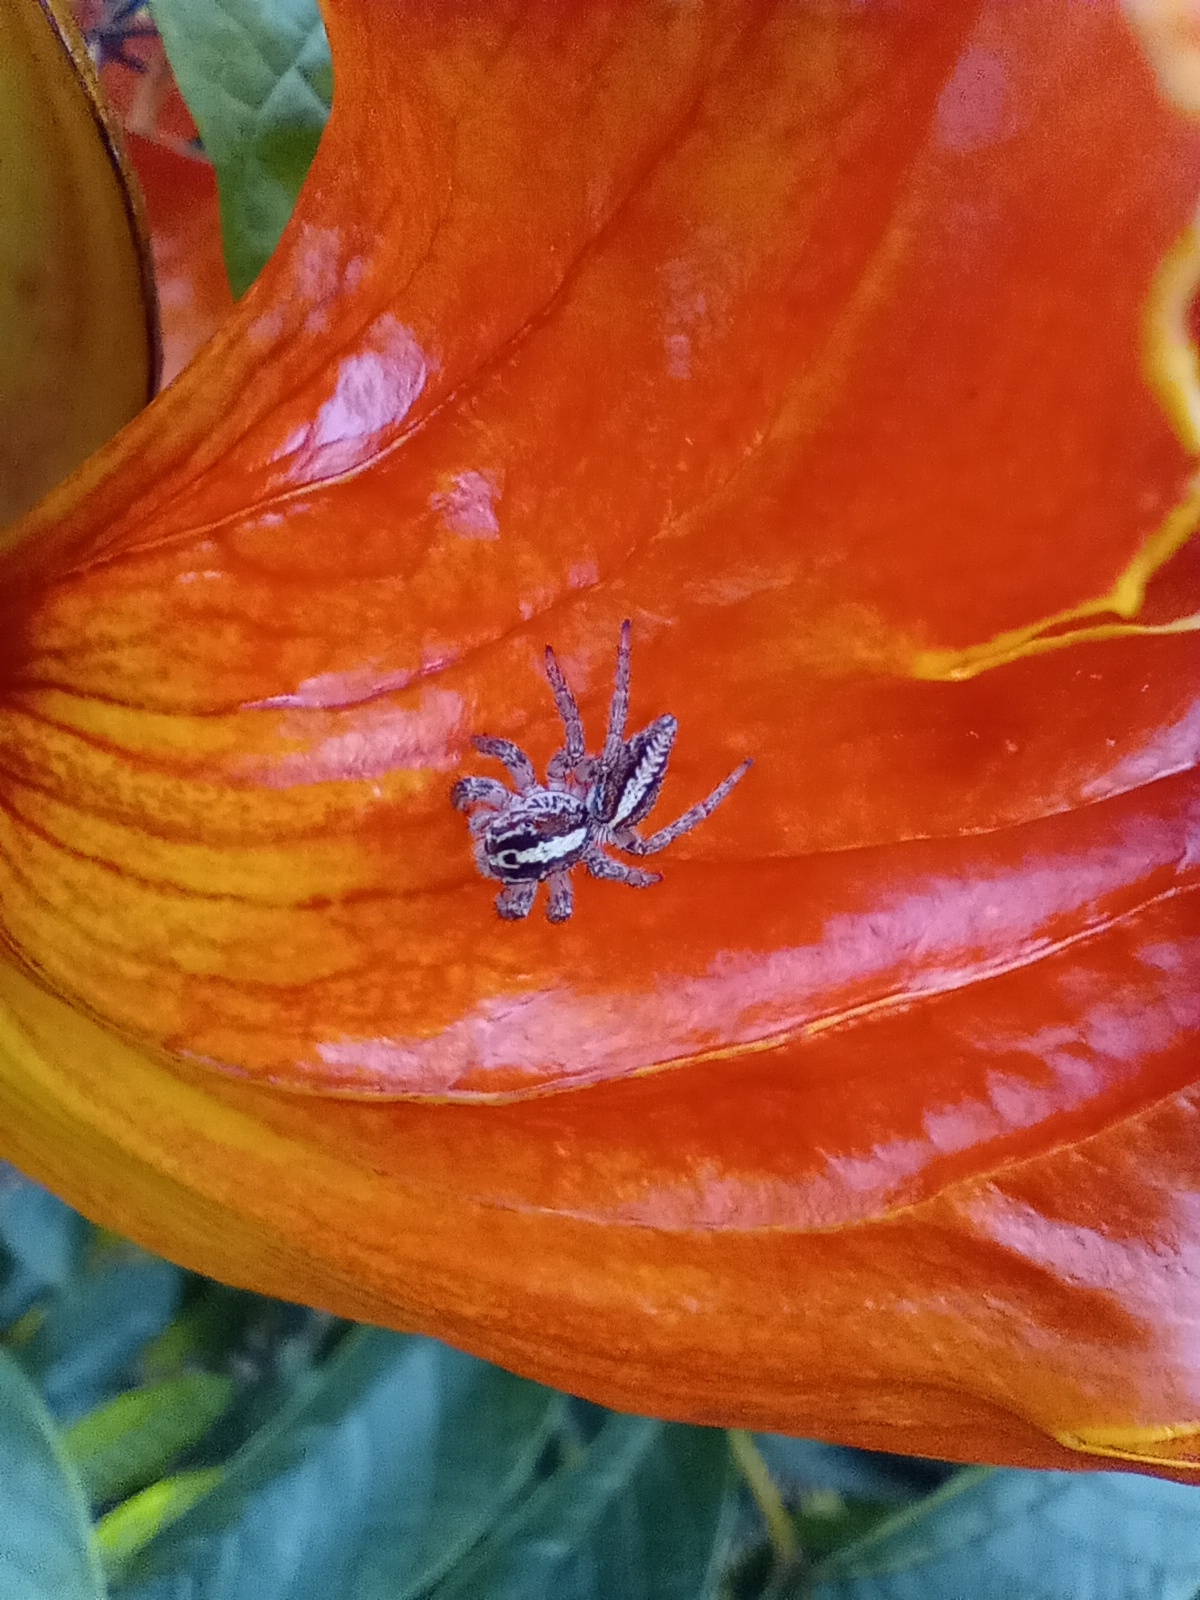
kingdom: Animalia
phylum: Arthropoda
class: Arachnida
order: Araneae
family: Salticidae
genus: Frigga
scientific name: Frigga crocuta
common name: Jumping spiders
